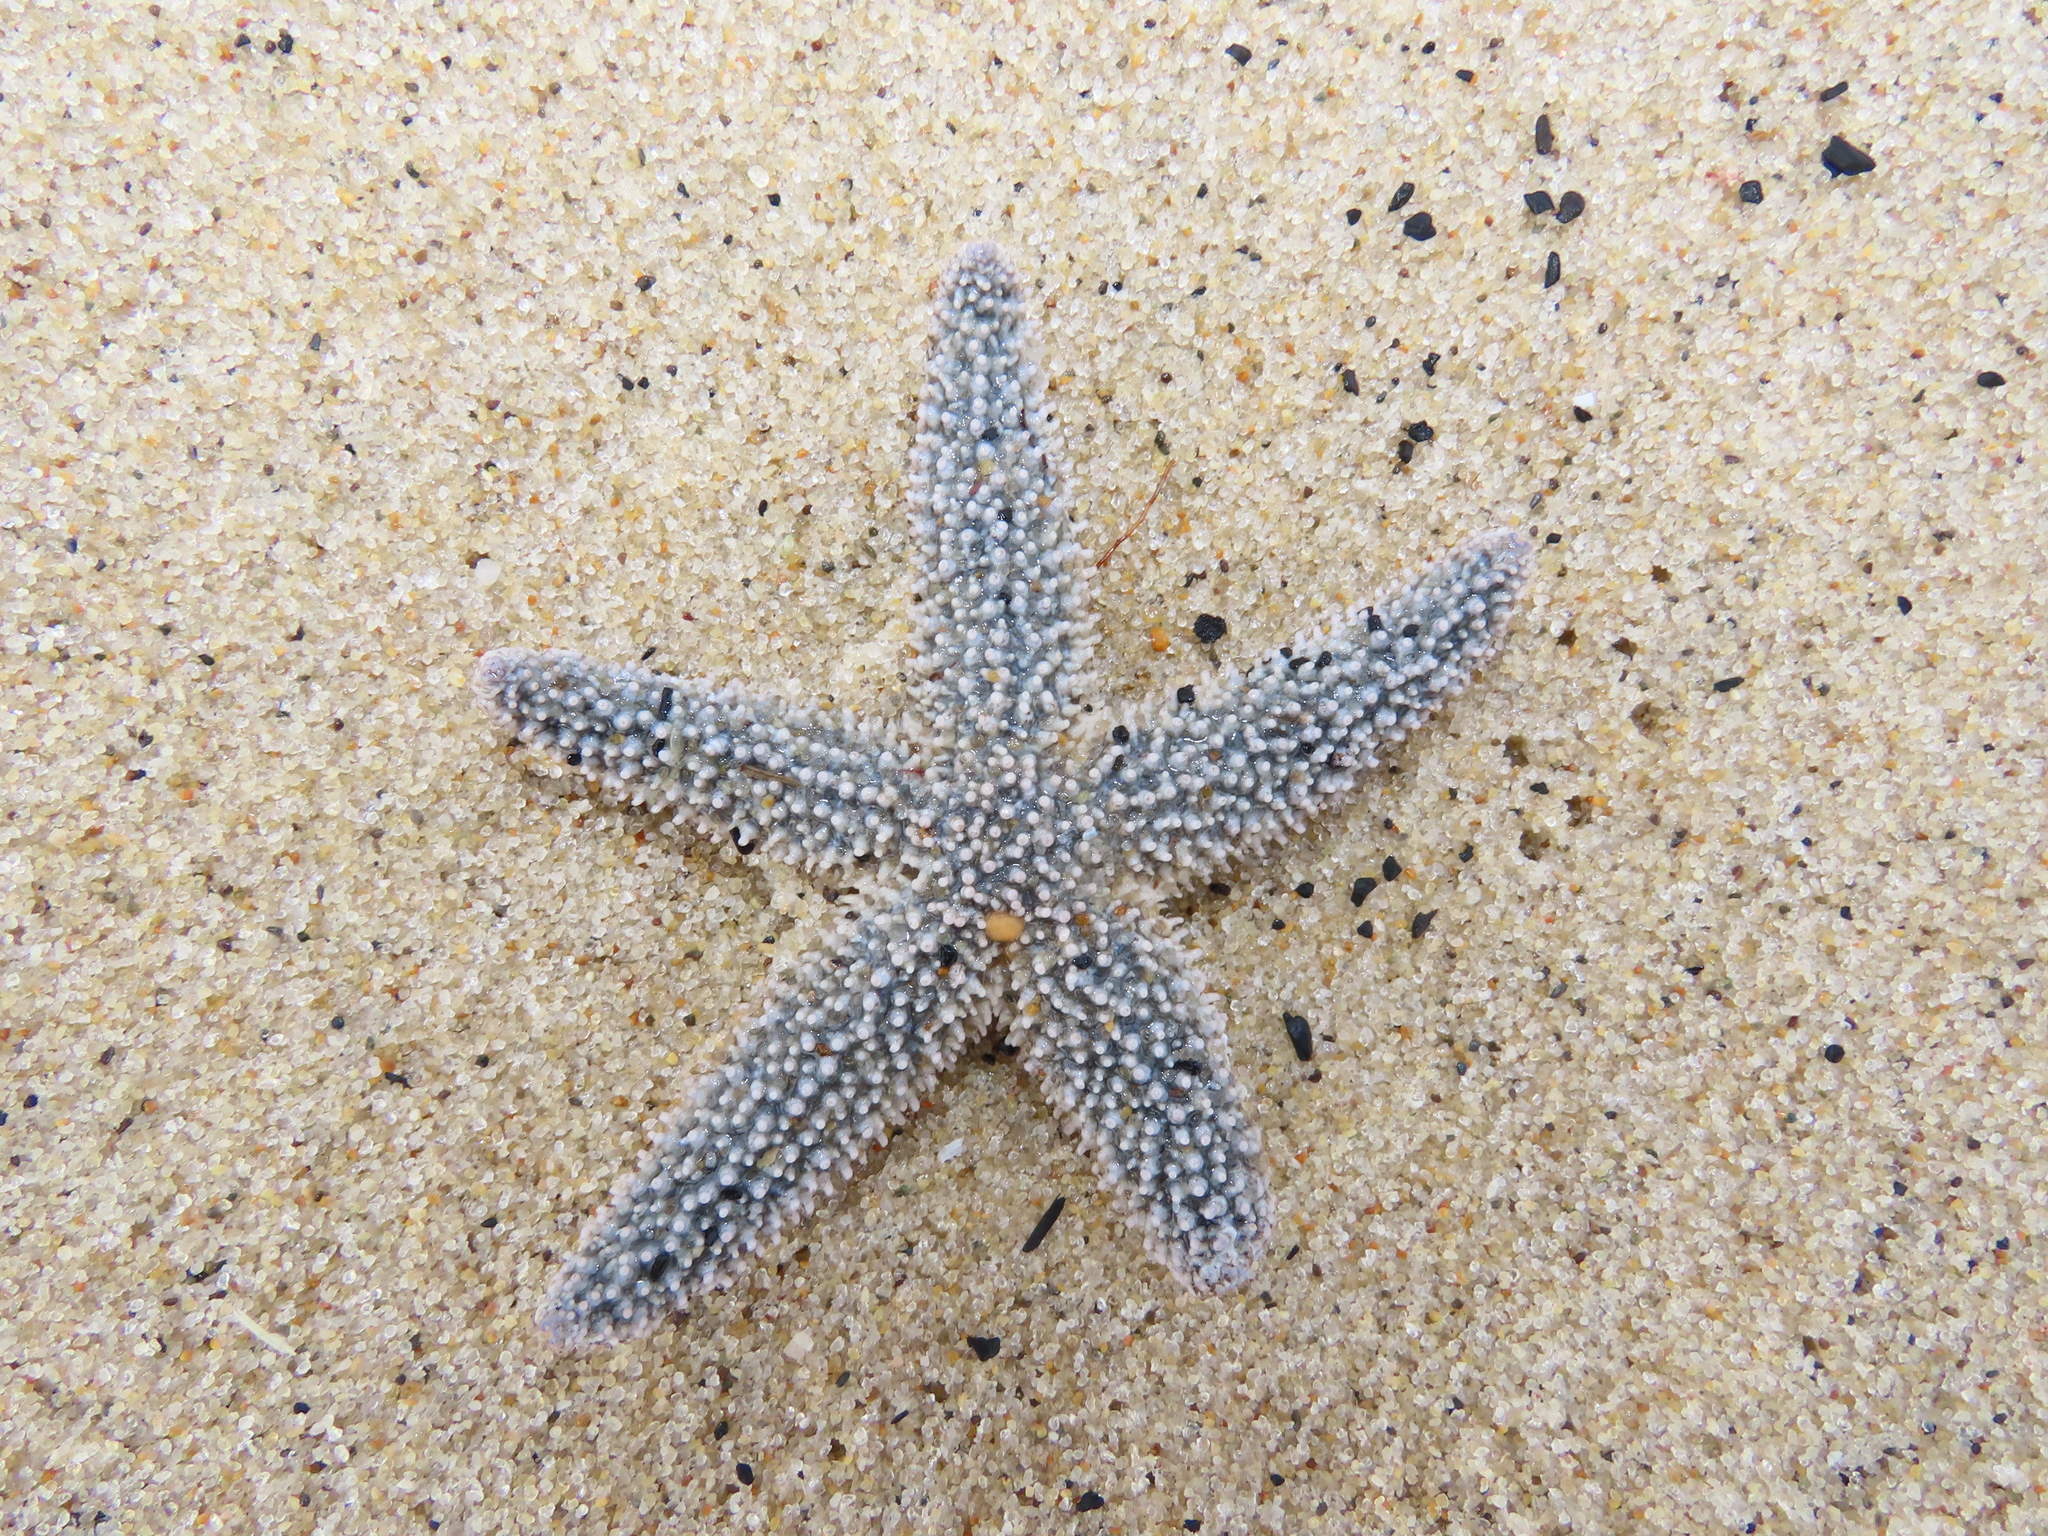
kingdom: Animalia
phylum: Echinodermata
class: Asteroidea
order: Forcipulatida
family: Asteriidae
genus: Asterias
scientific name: Asterias forbesi
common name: Forbes's sea star
